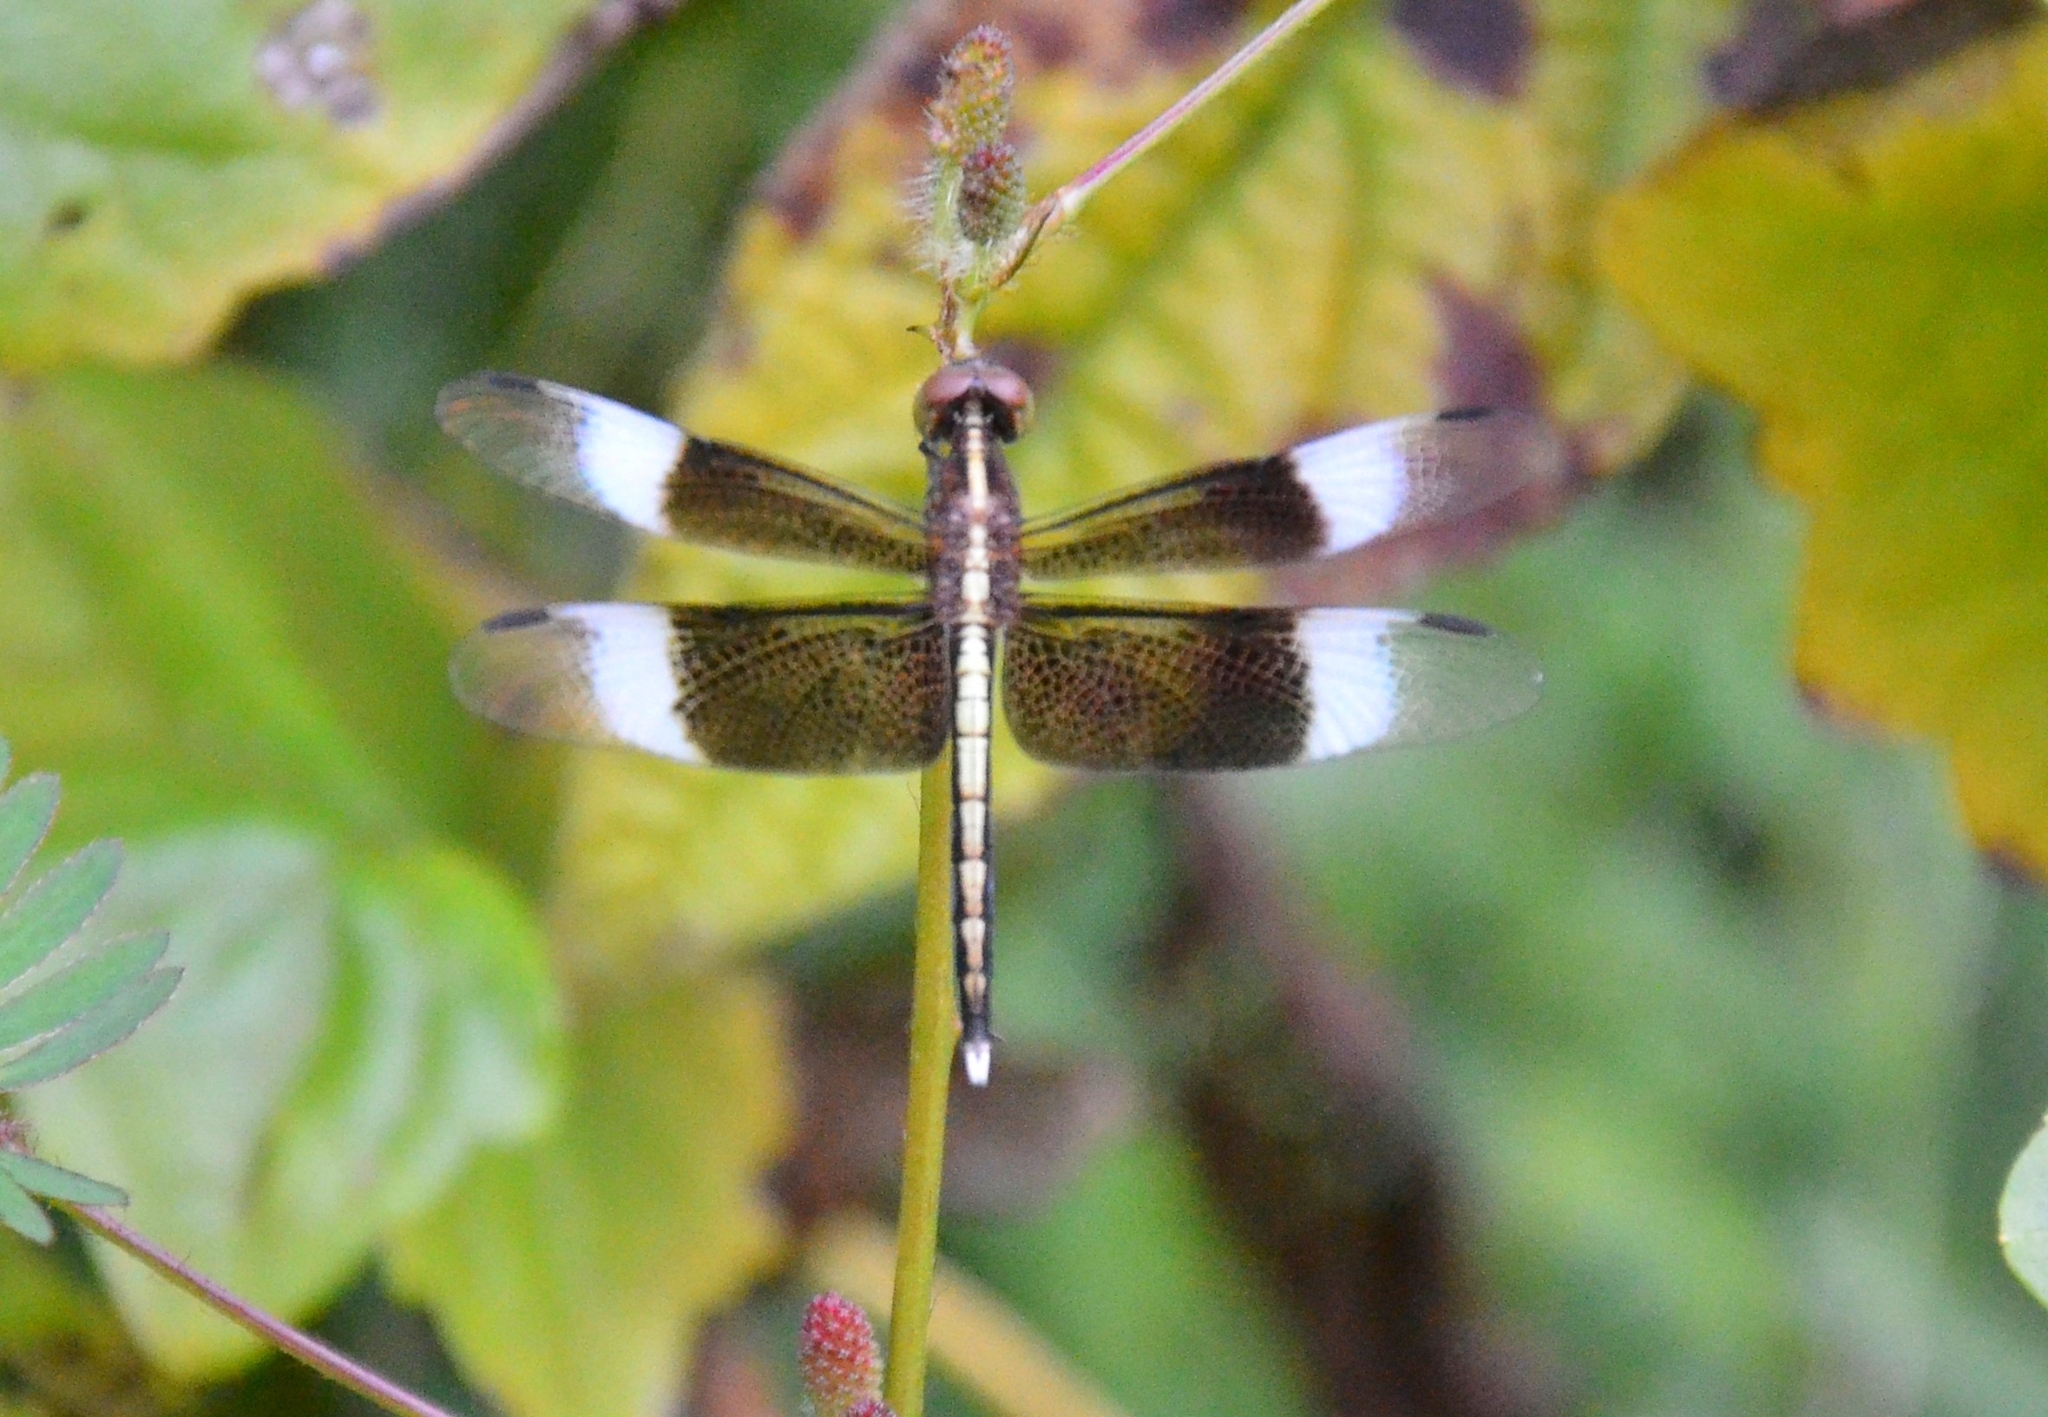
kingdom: Animalia
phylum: Arthropoda
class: Insecta
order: Odonata
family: Libellulidae
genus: Neurothemis
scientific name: Neurothemis tullia
